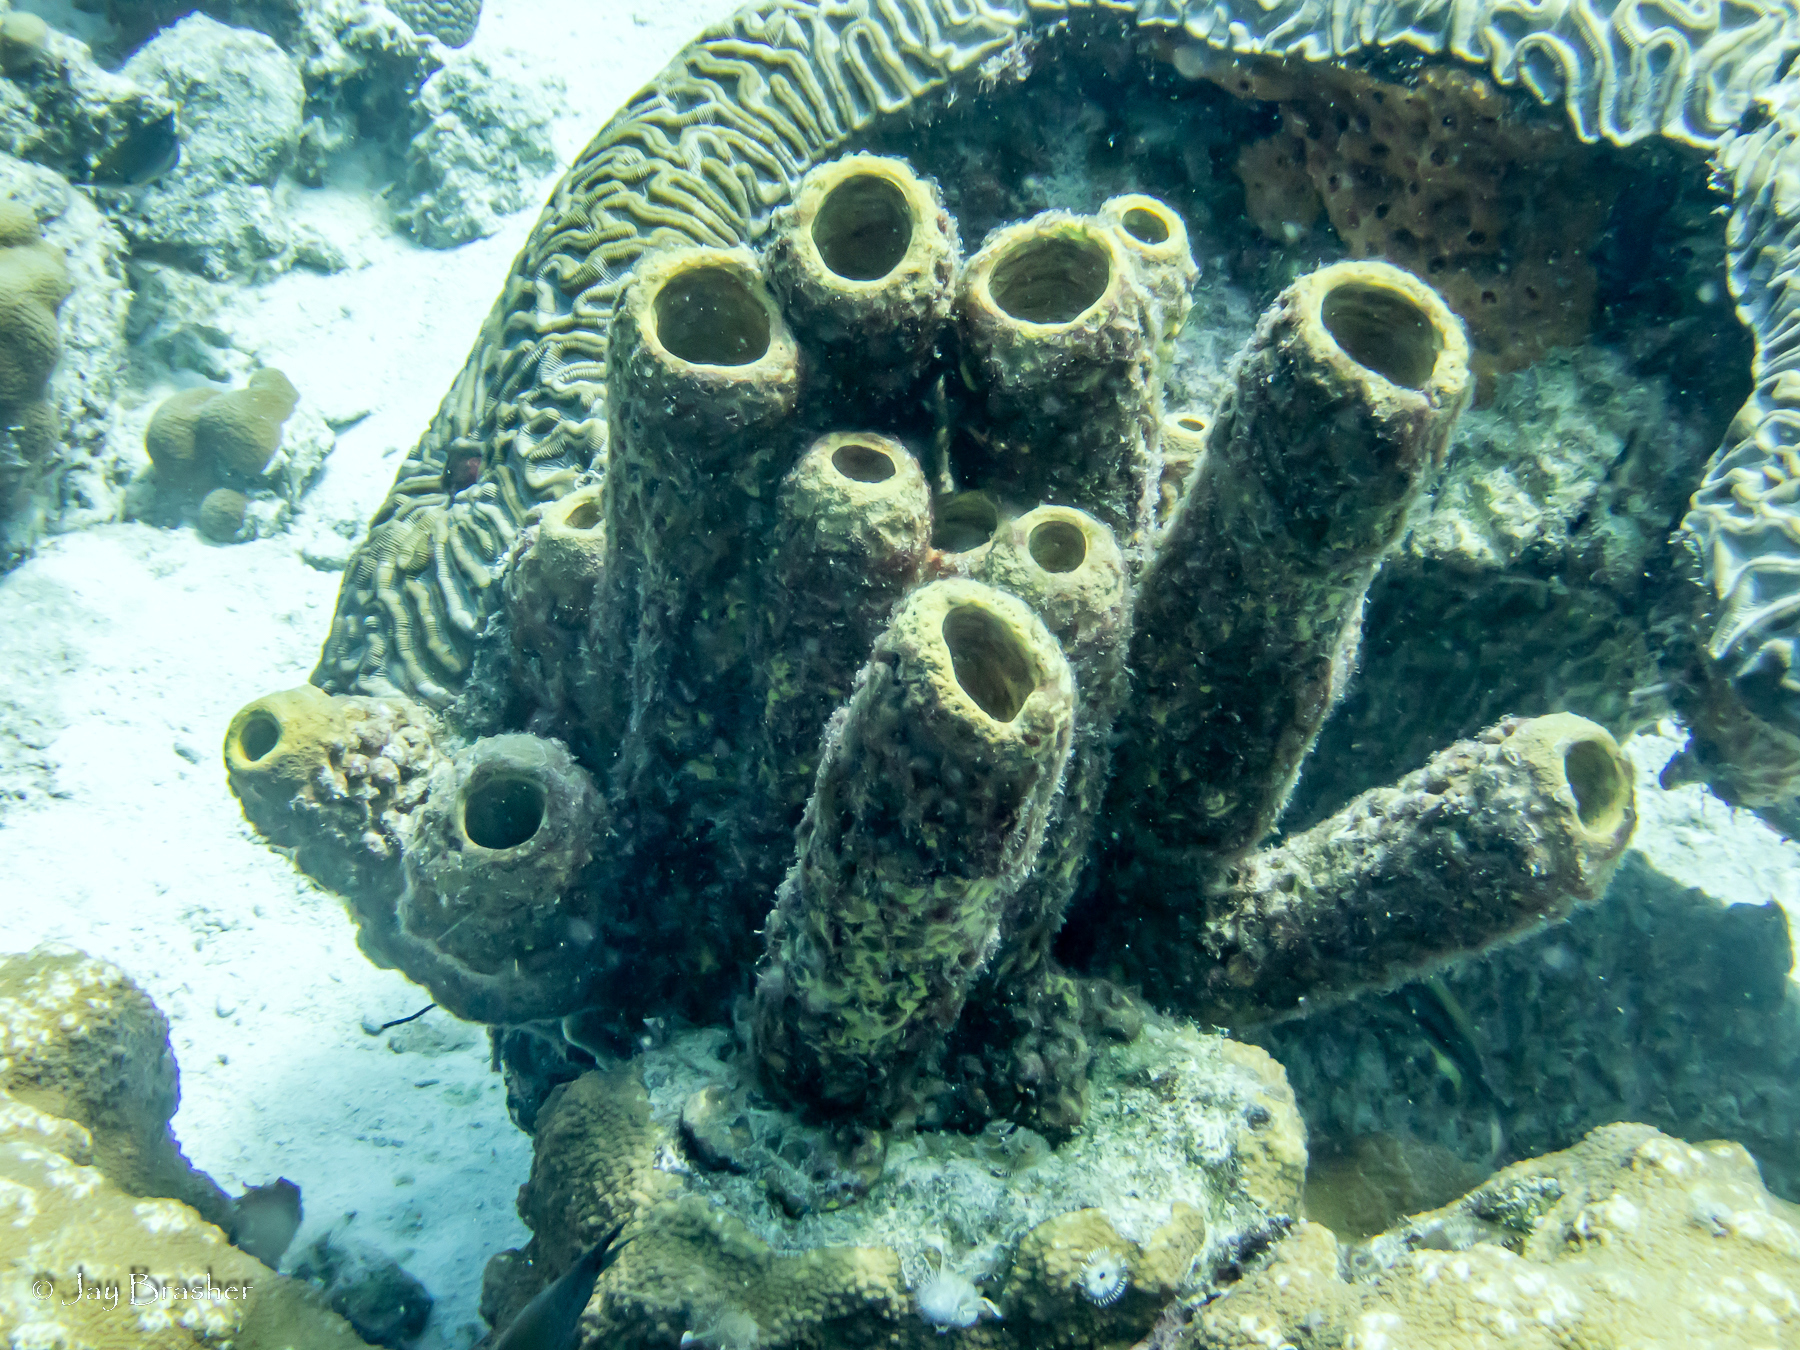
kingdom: Animalia
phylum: Cnidaria
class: Anthozoa
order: Scleractinia
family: Faviidae
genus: Colpophyllia
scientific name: Colpophyllia natans
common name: Boulder brain coral
